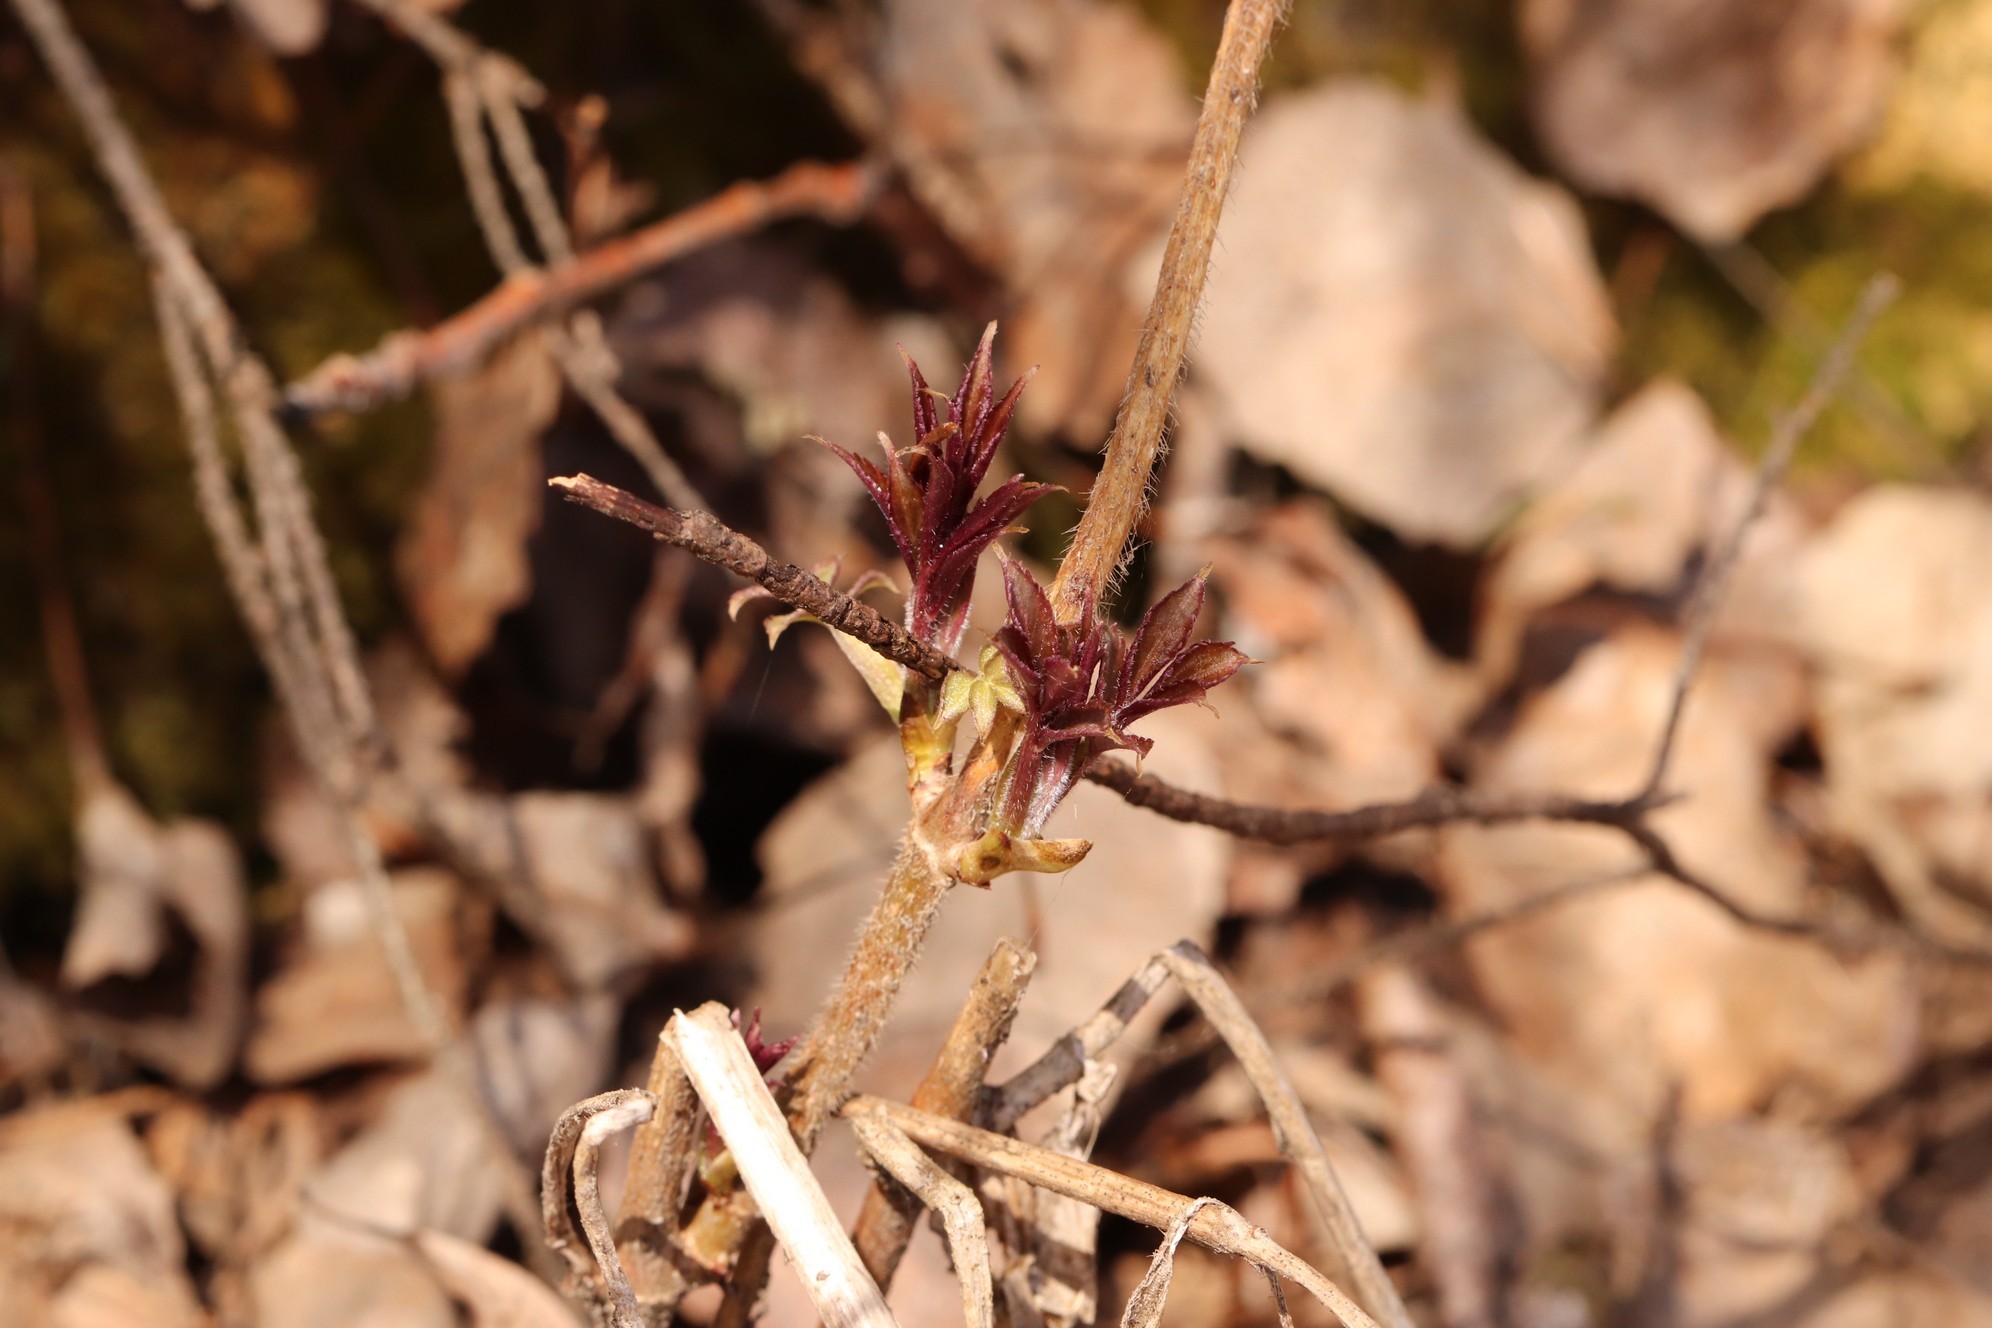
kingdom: Plantae
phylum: Tracheophyta
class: Magnoliopsida
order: Dipsacales
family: Viburnaceae
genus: Sambucus
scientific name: Sambucus sibirica
